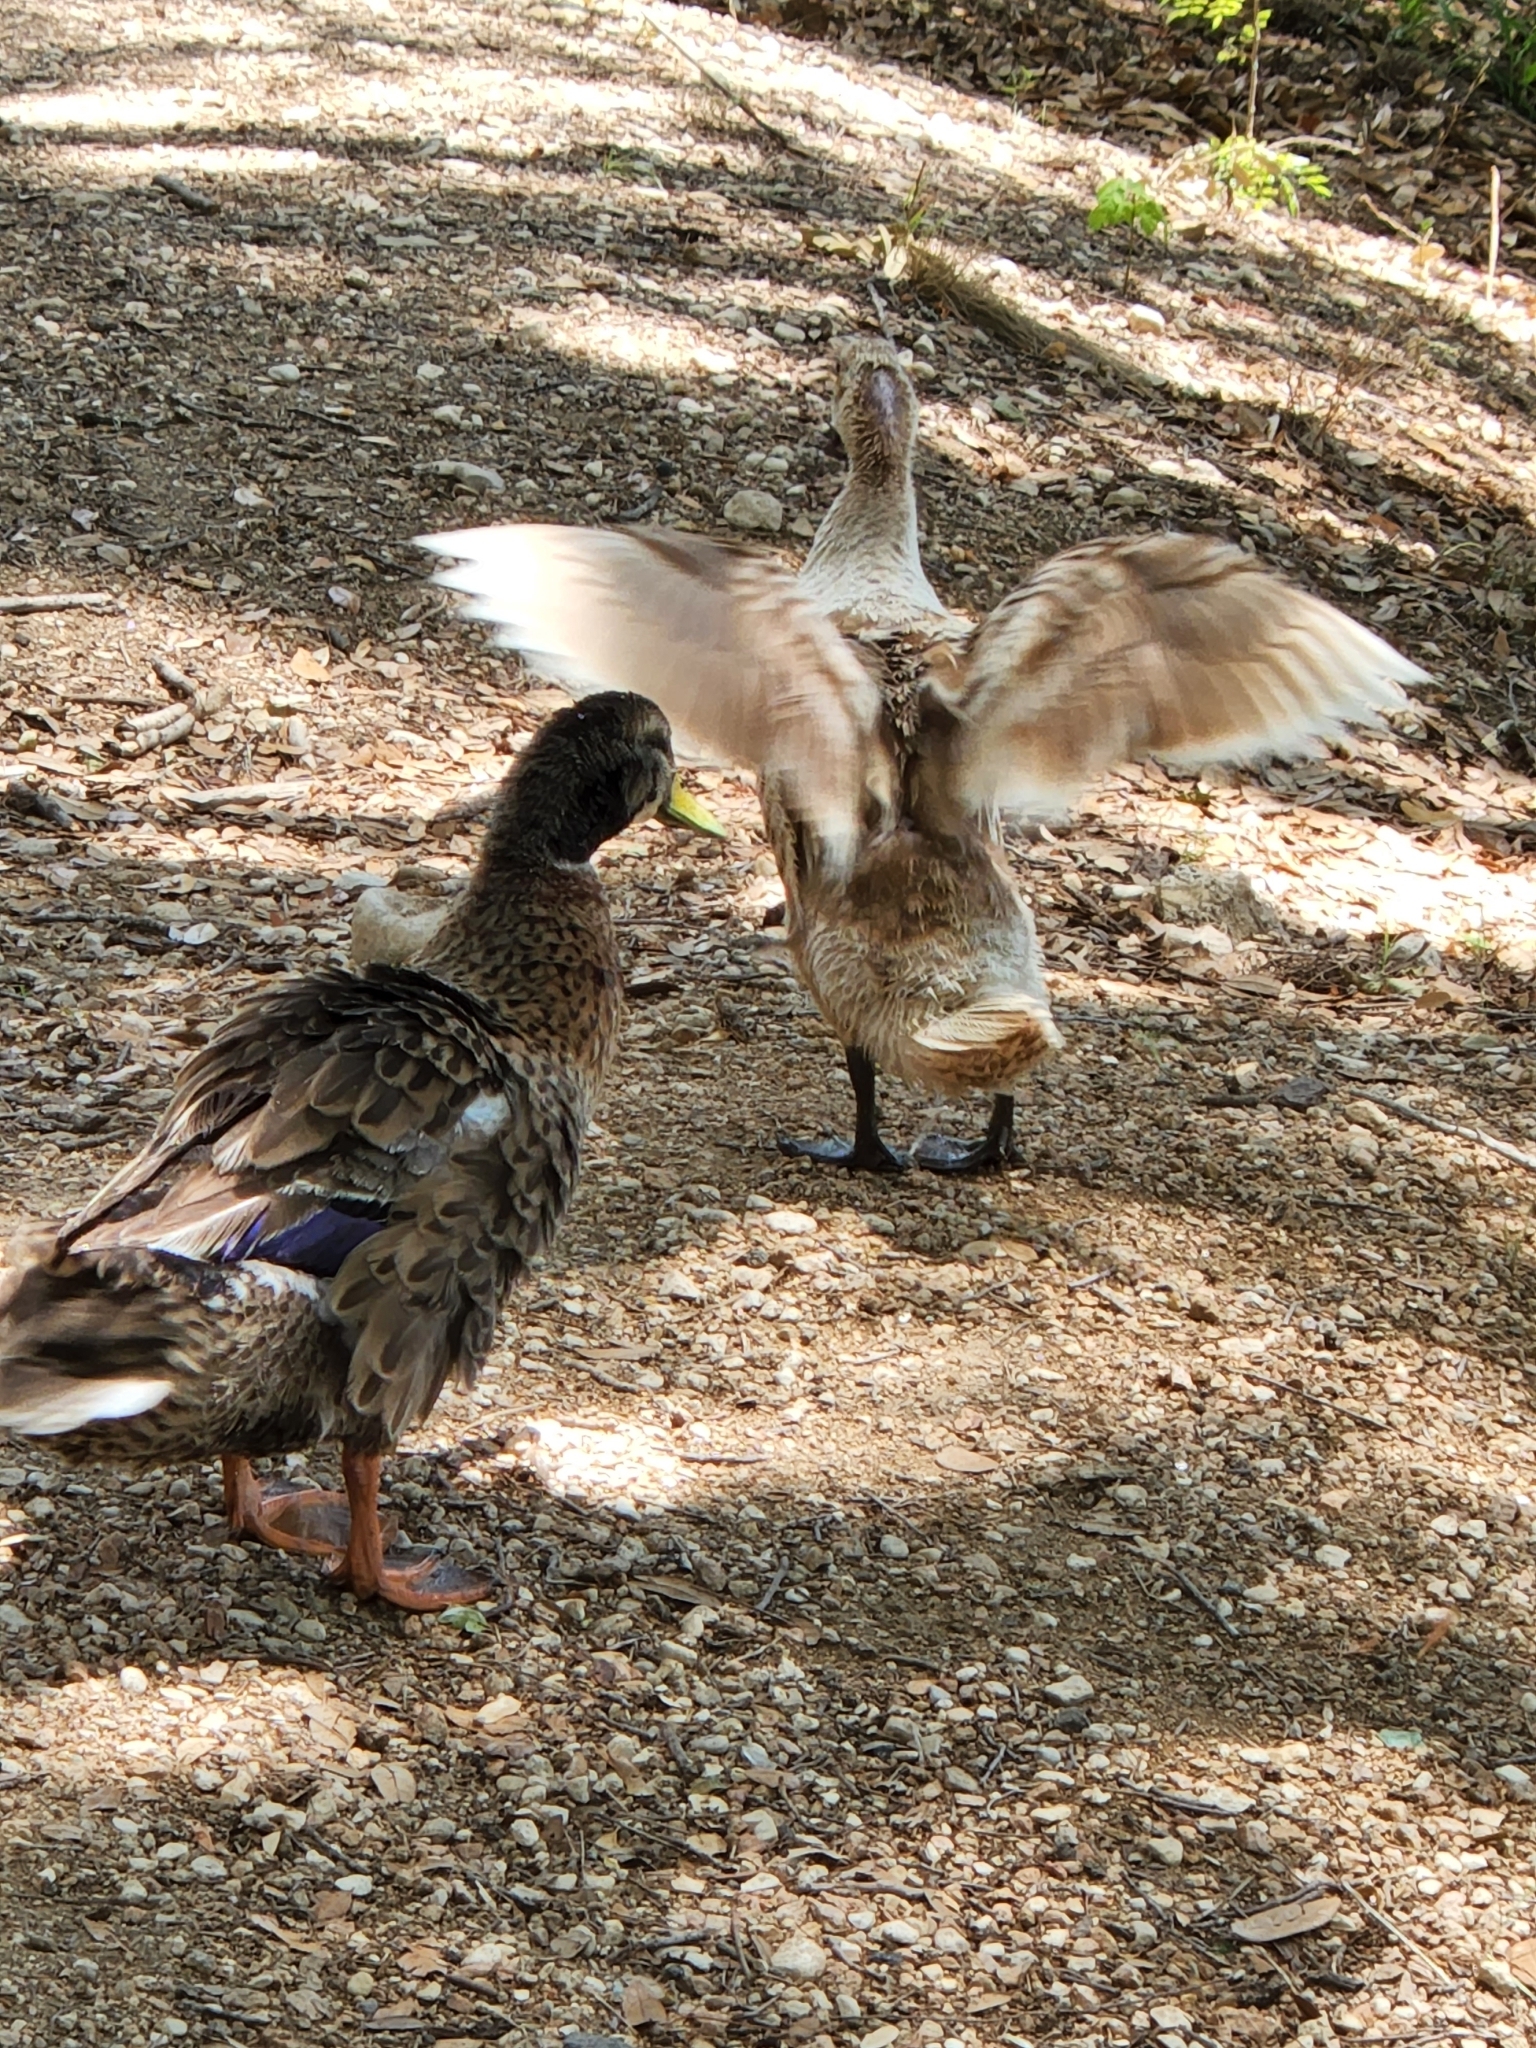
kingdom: Animalia
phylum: Chordata
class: Aves
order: Anseriformes
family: Anatidae
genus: Anas
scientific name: Anas platyrhynchos
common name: Mallard
